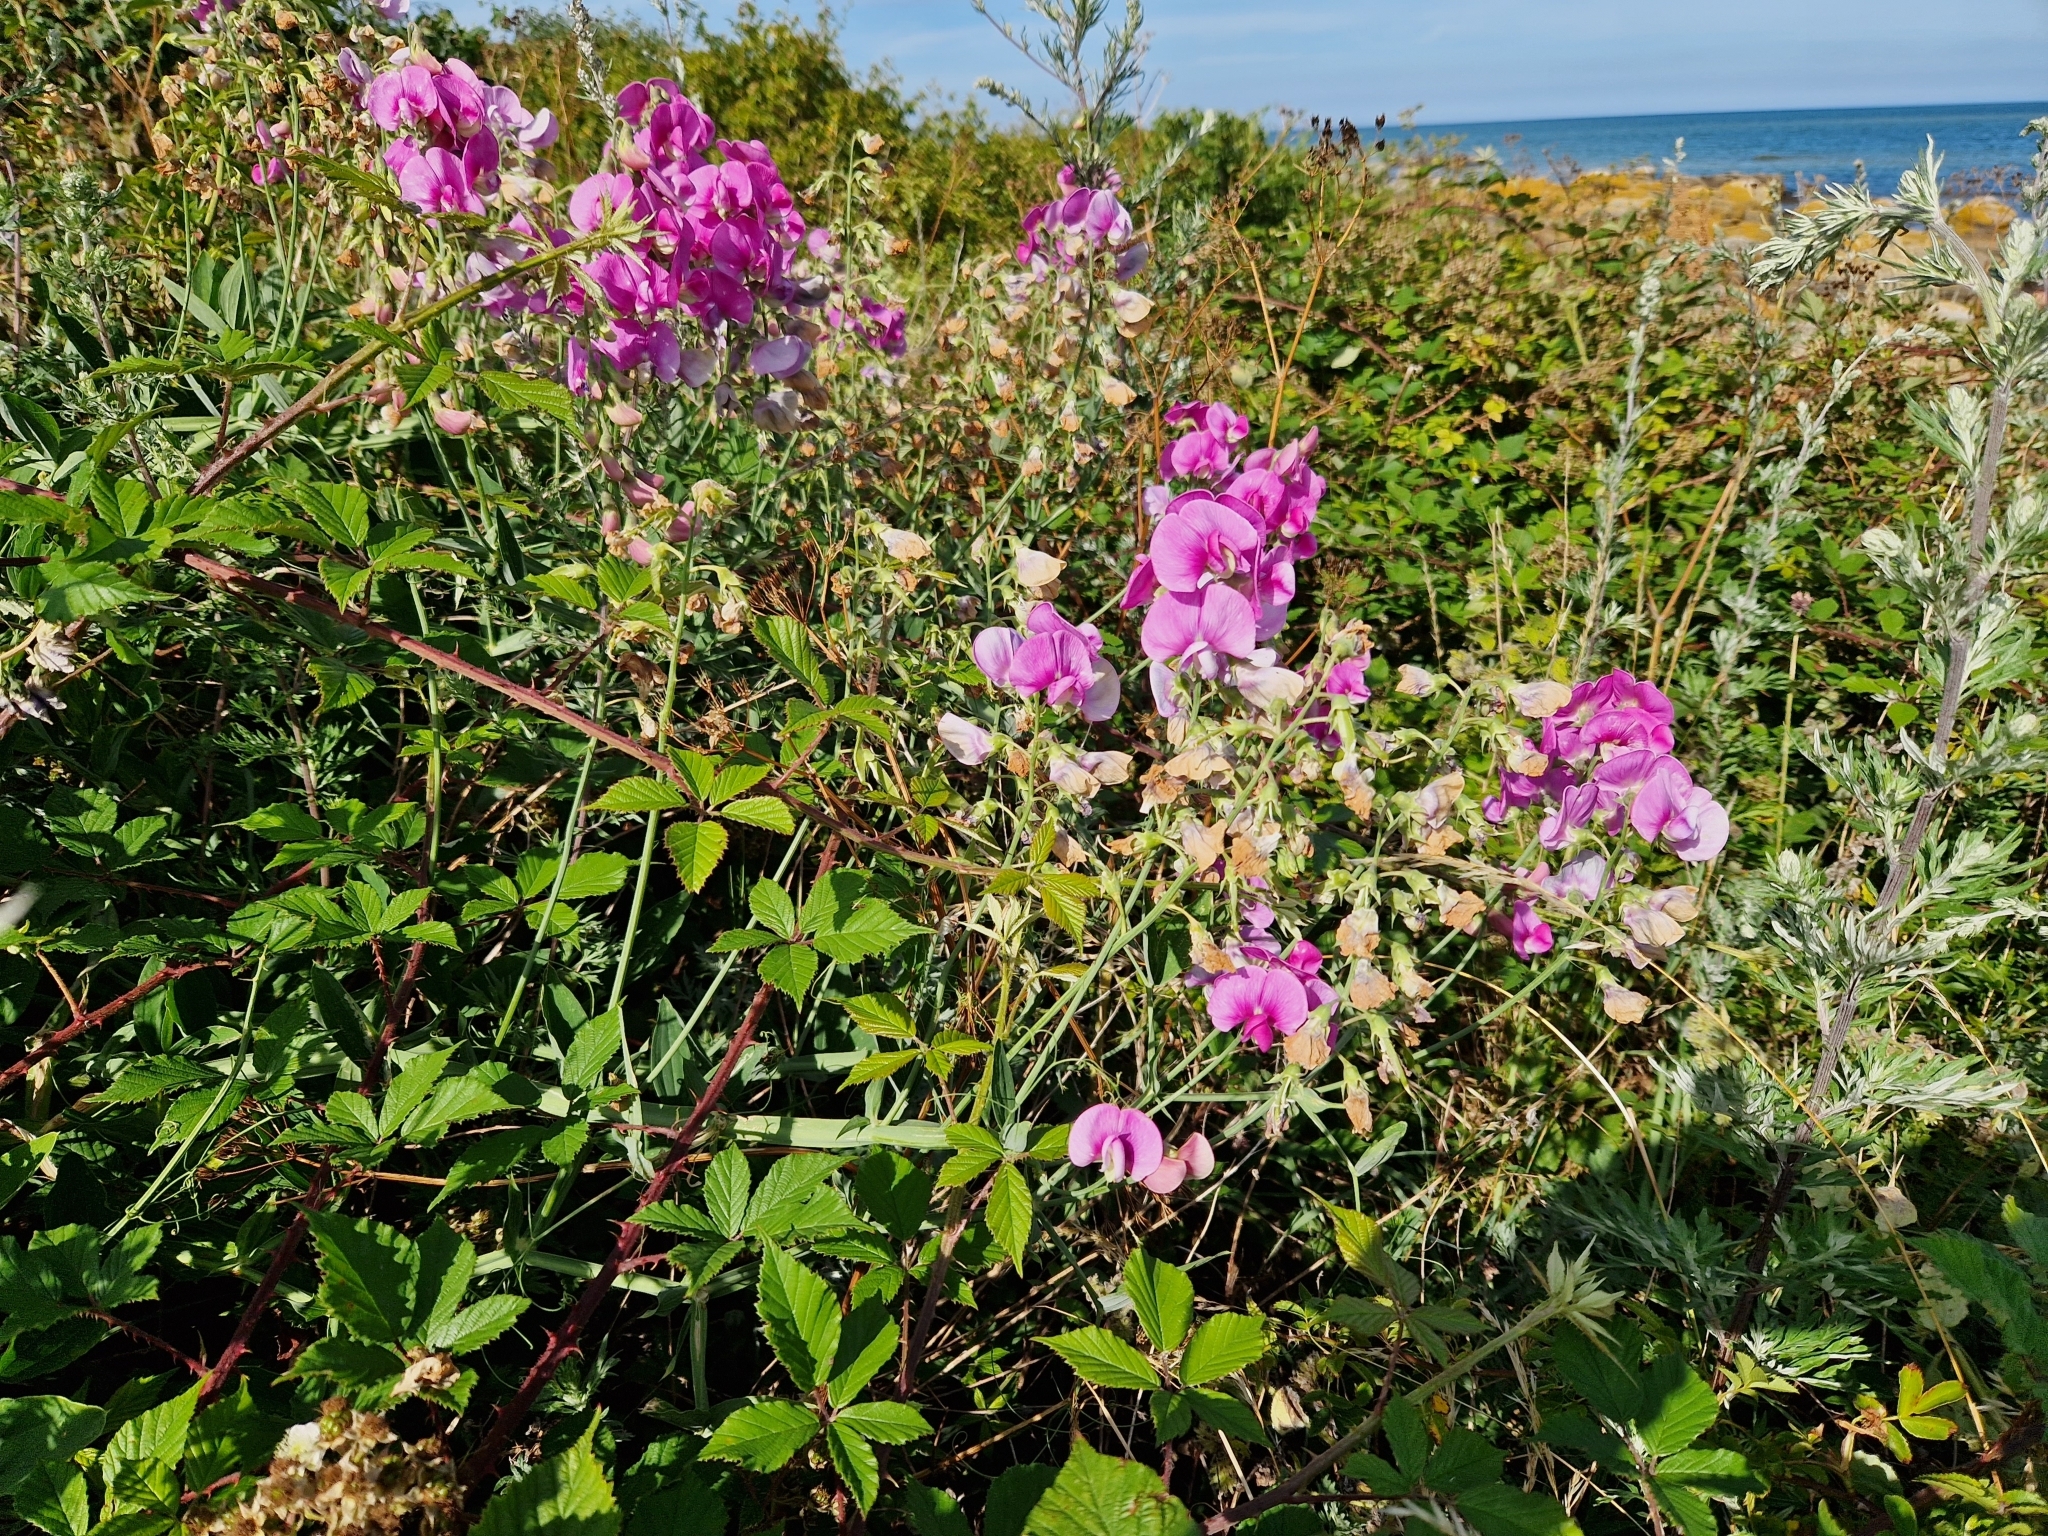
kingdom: Plantae
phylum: Tracheophyta
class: Magnoliopsida
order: Fabales
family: Fabaceae
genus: Lathyrus
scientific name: Lathyrus latifolius
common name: Perennial pea
